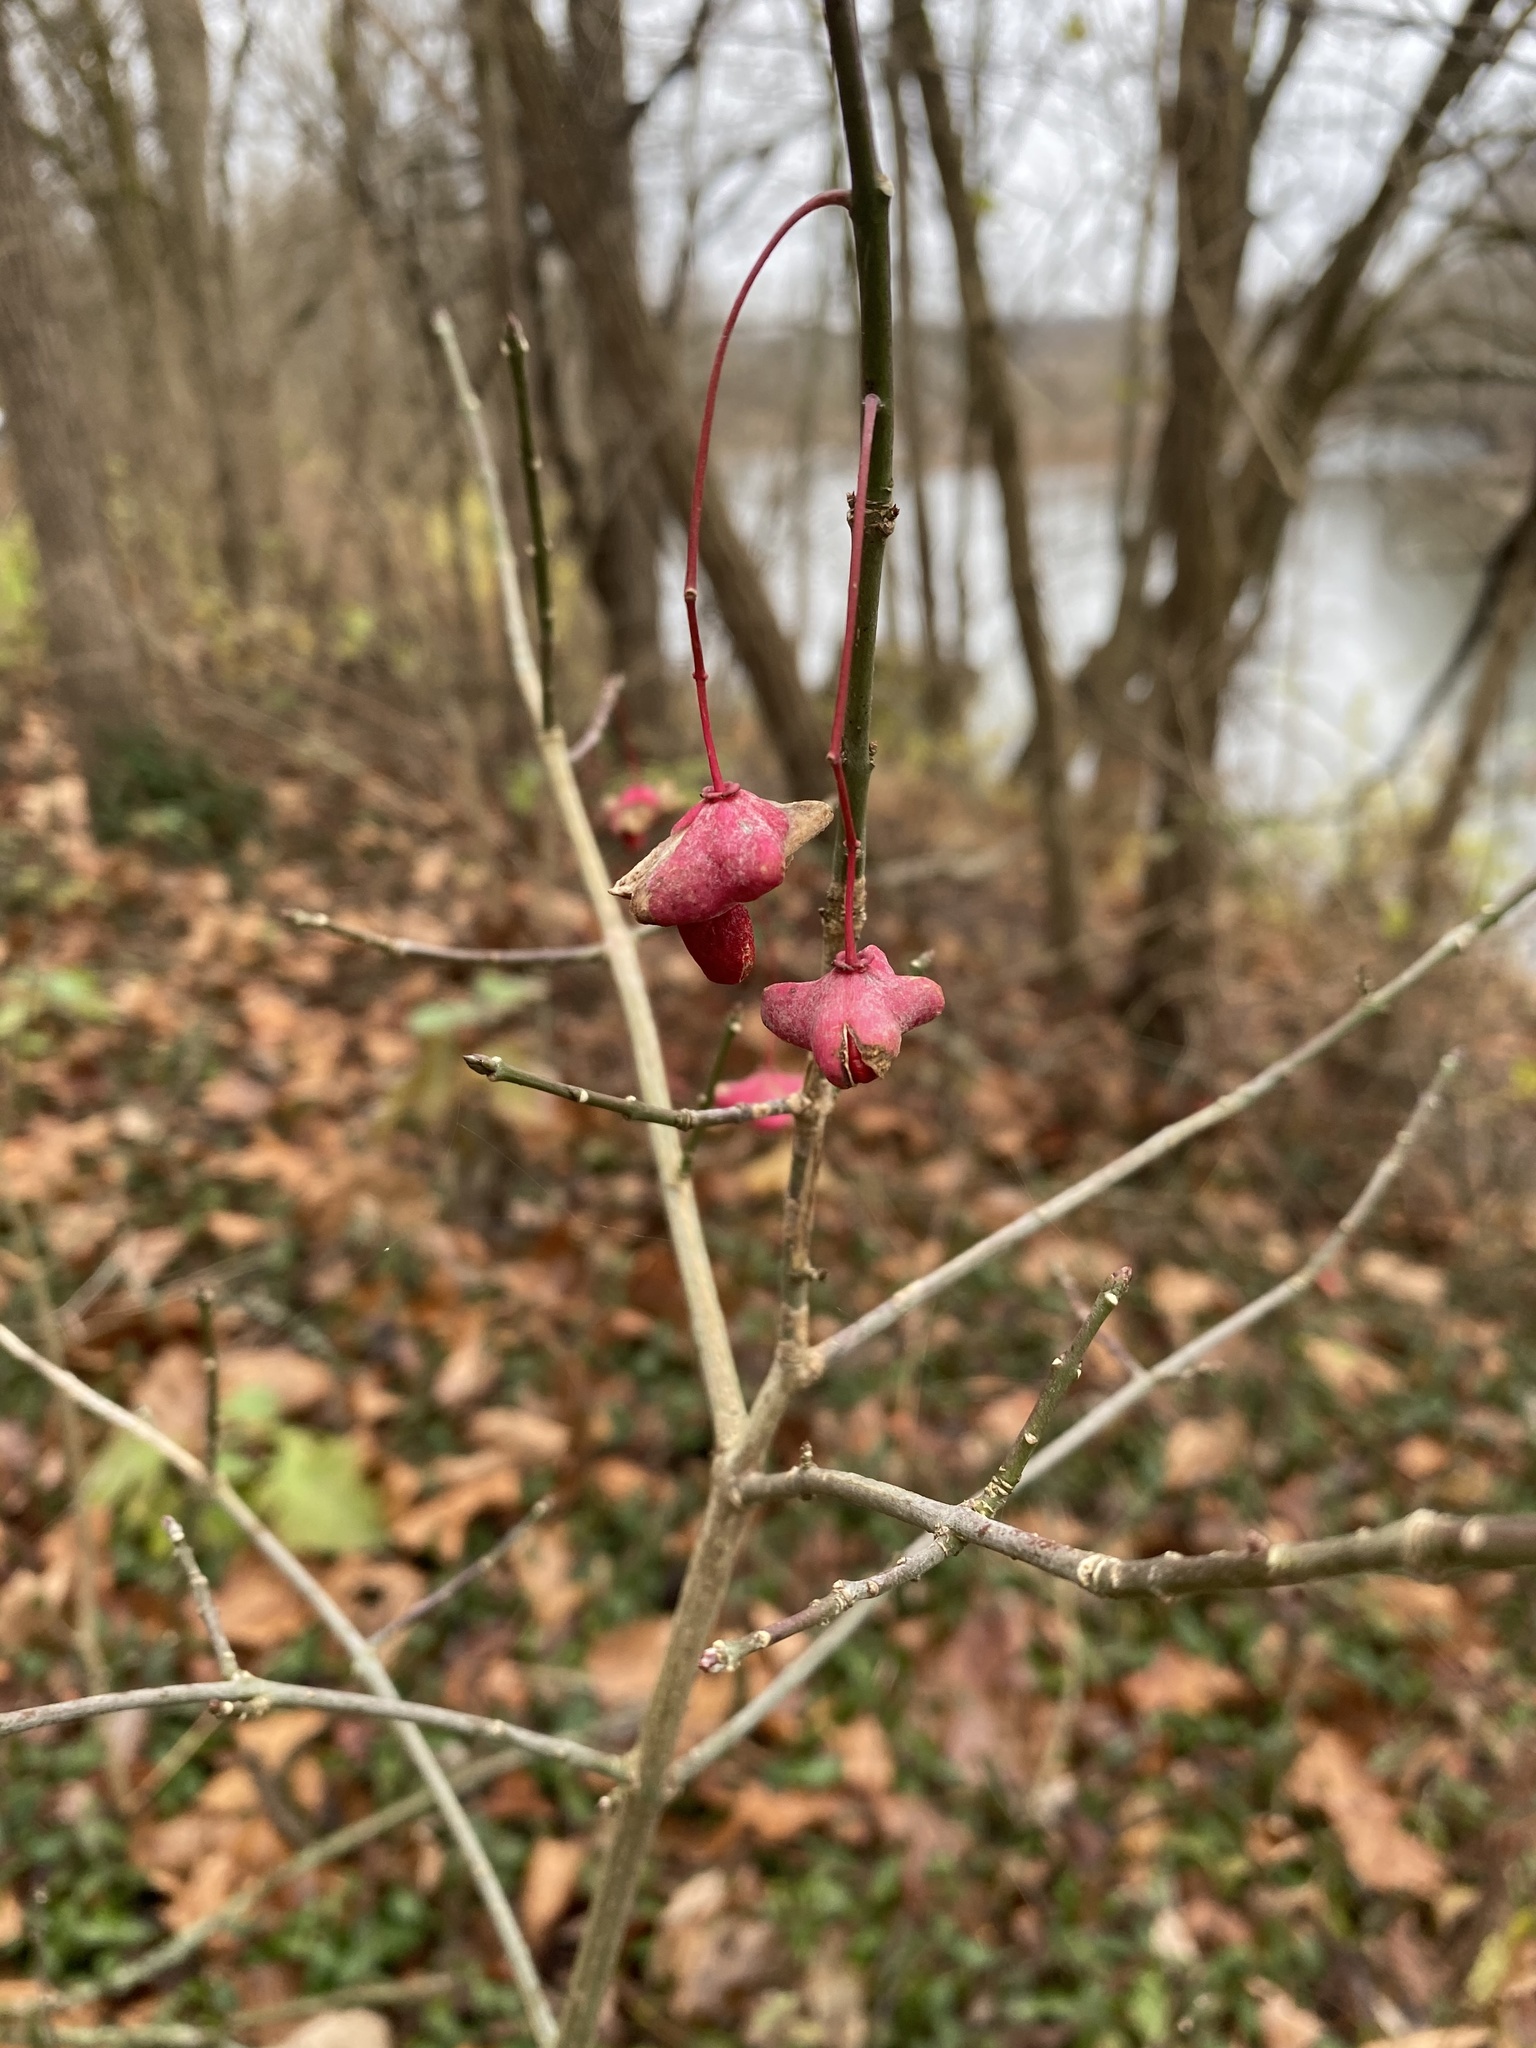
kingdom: Plantae
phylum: Tracheophyta
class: Magnoliopsida
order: Celastrales
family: Celastraceae
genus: Euonymus
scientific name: Euonymus atropurpureus
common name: Eastern wahoo
